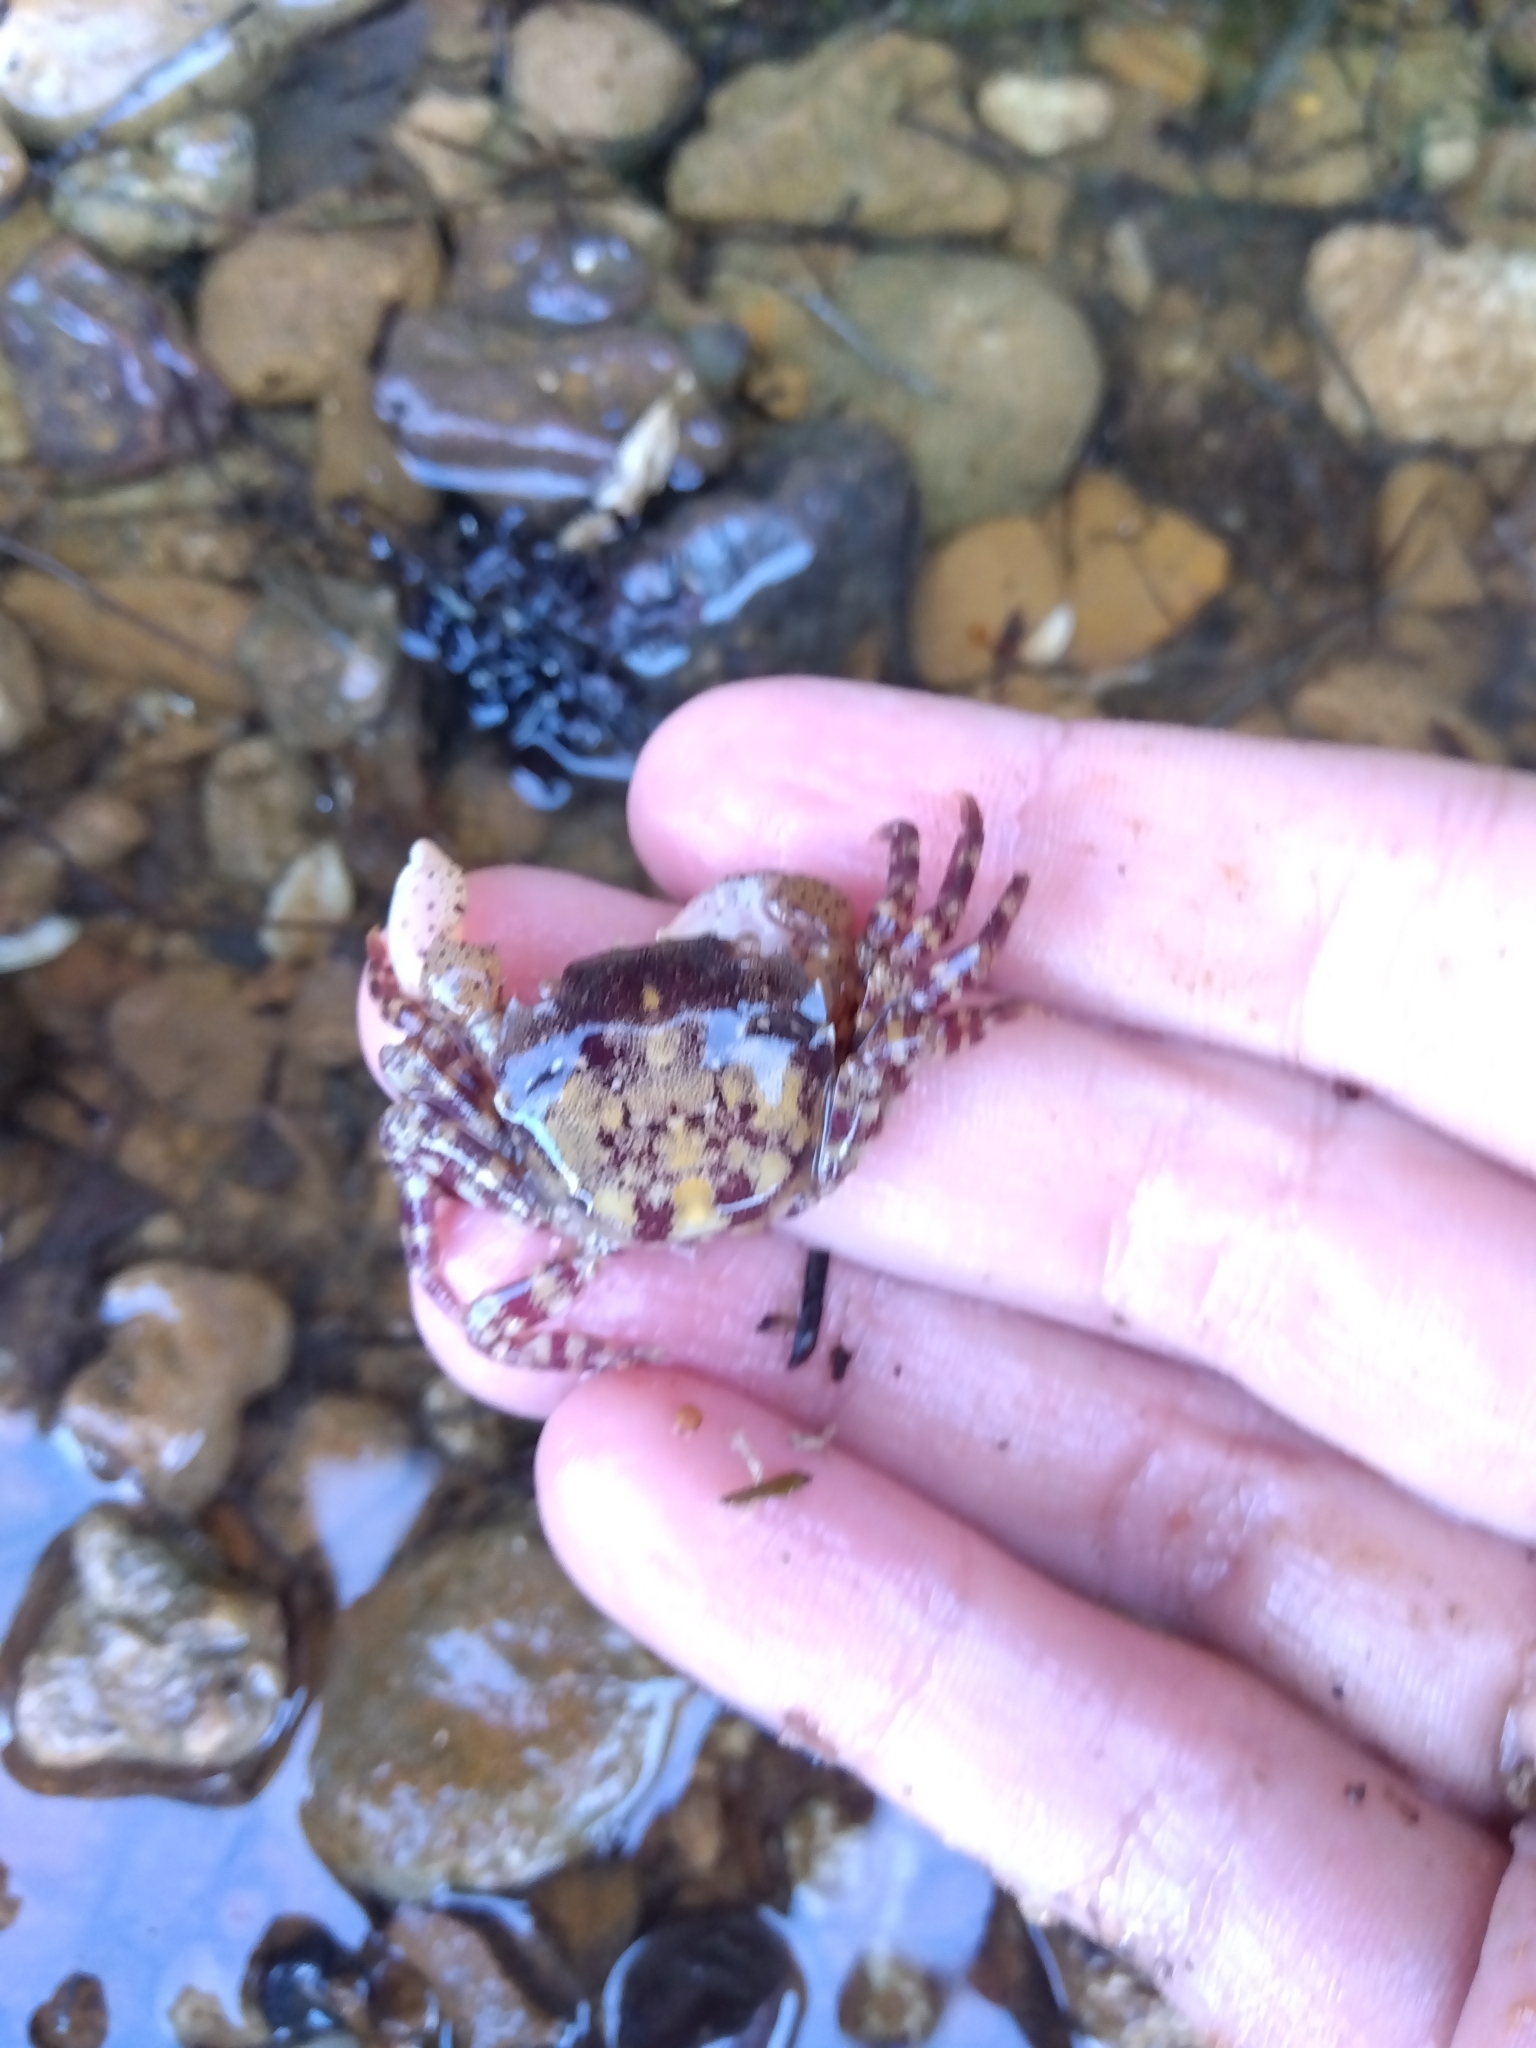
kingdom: Animalia
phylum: Arthropoda
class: Malacostraca
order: Decapoda
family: Varunidae
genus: Hemigrapsus
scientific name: Hemigrapsus sanguineus
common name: Asian shore crab
